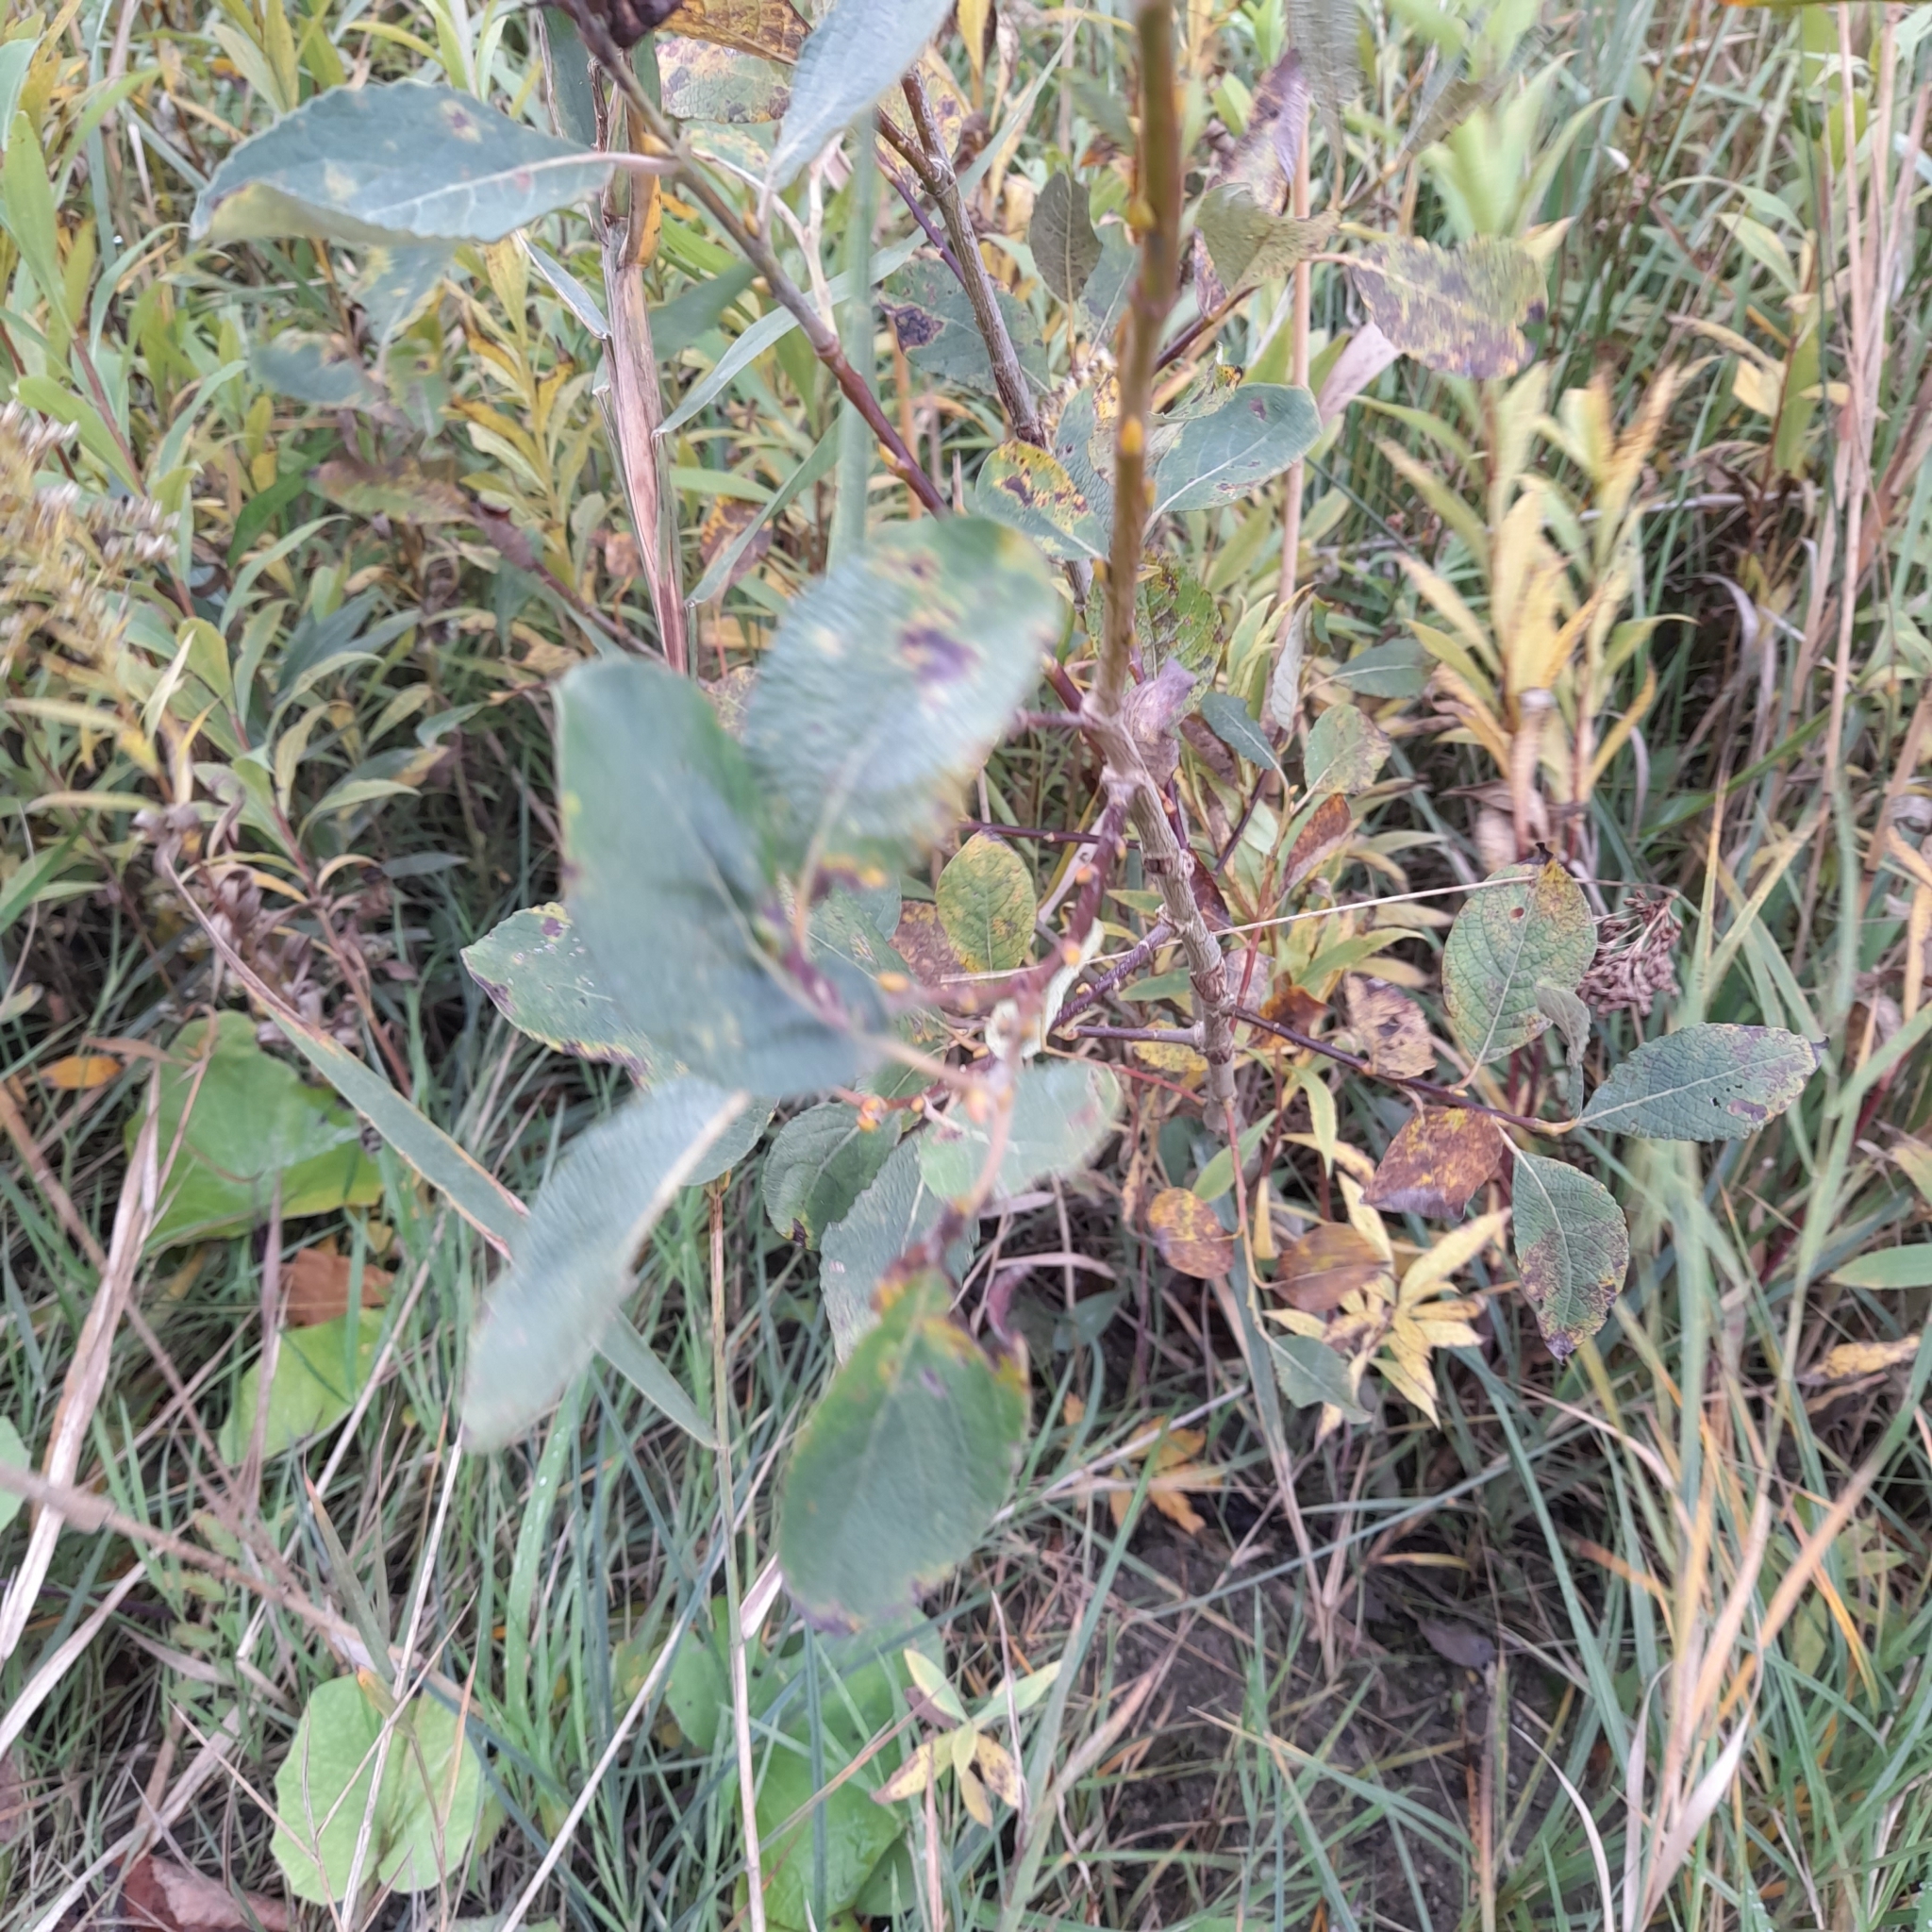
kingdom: Plantae
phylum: Tracheophyta
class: Magnoliopsida
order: Malpighiales
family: Salicaceae
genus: Salix
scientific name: Salix caprea
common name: Goat willow
